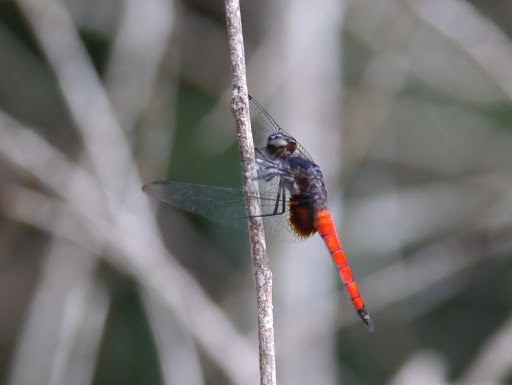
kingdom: Animalia
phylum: Arthropoda
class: Insecta
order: Odonata
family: Libellulidae
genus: Hadrothemis
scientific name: Hadrothemis defecta
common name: Scarlet jungleskimmer
